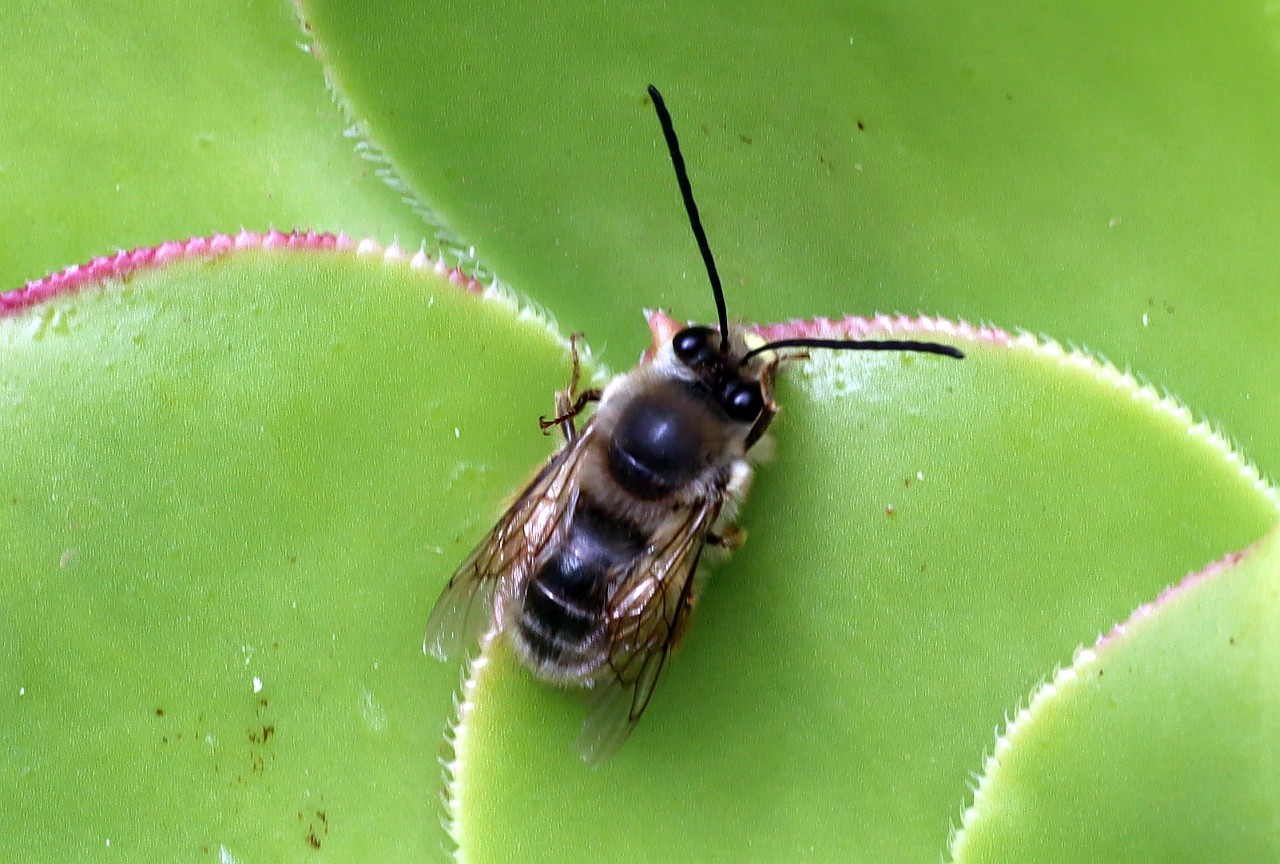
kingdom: Animalia
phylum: Arthropoda
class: Insecta
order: Hymenoptera
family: Apidae
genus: Eucera
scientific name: Eucera gracilipes
